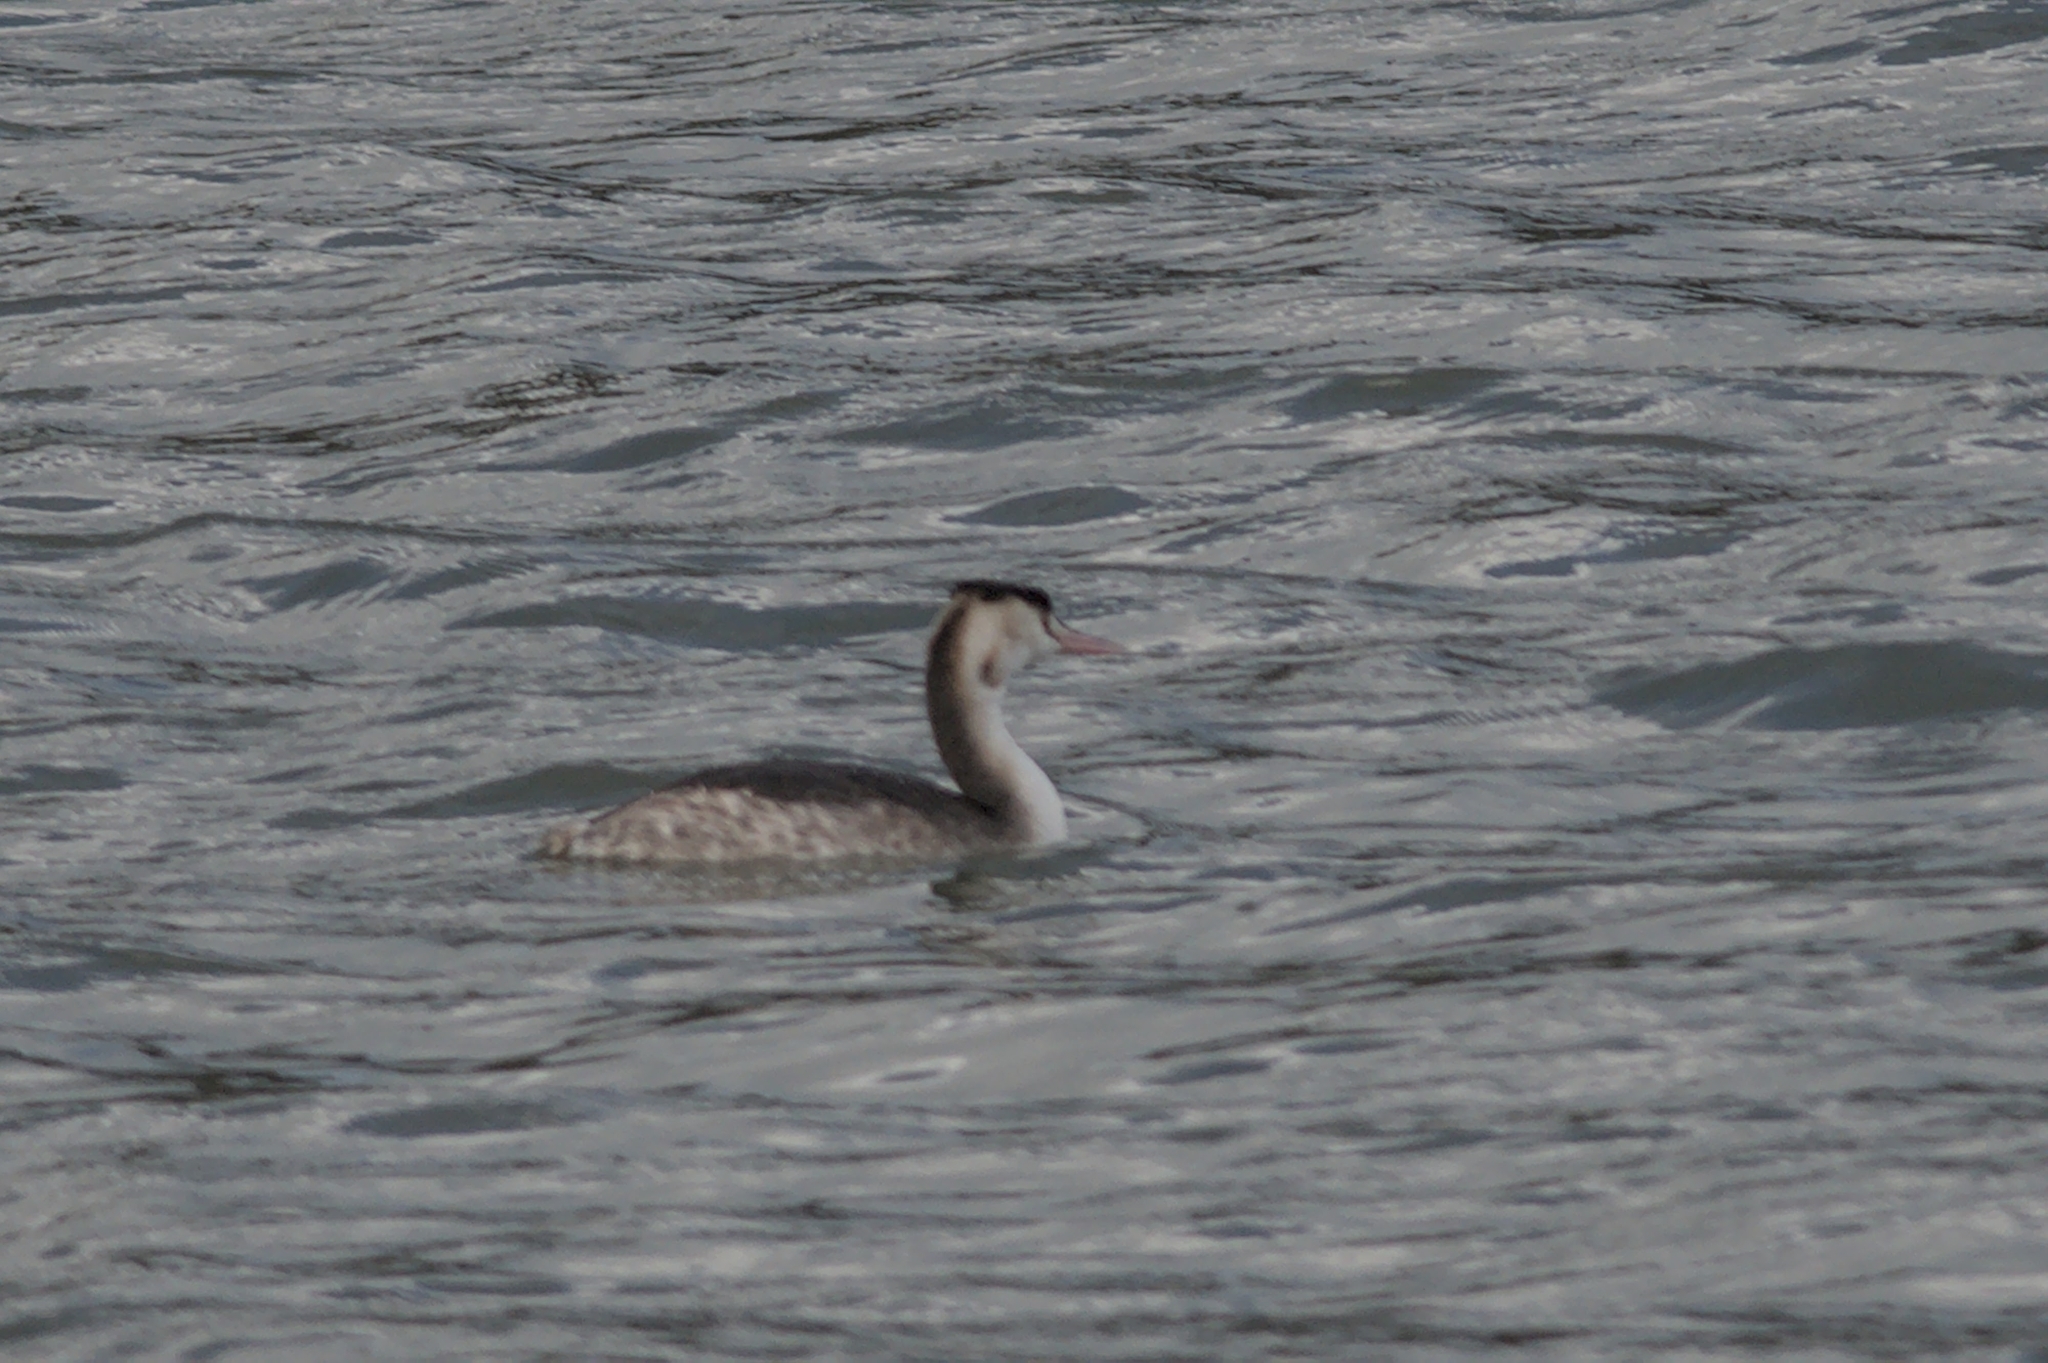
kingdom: Animalia
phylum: Chordata
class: Aves
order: Podicipediformes
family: Podicipedidae
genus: Podiceps
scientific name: Podiceps cristatus
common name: Great crested grebe
